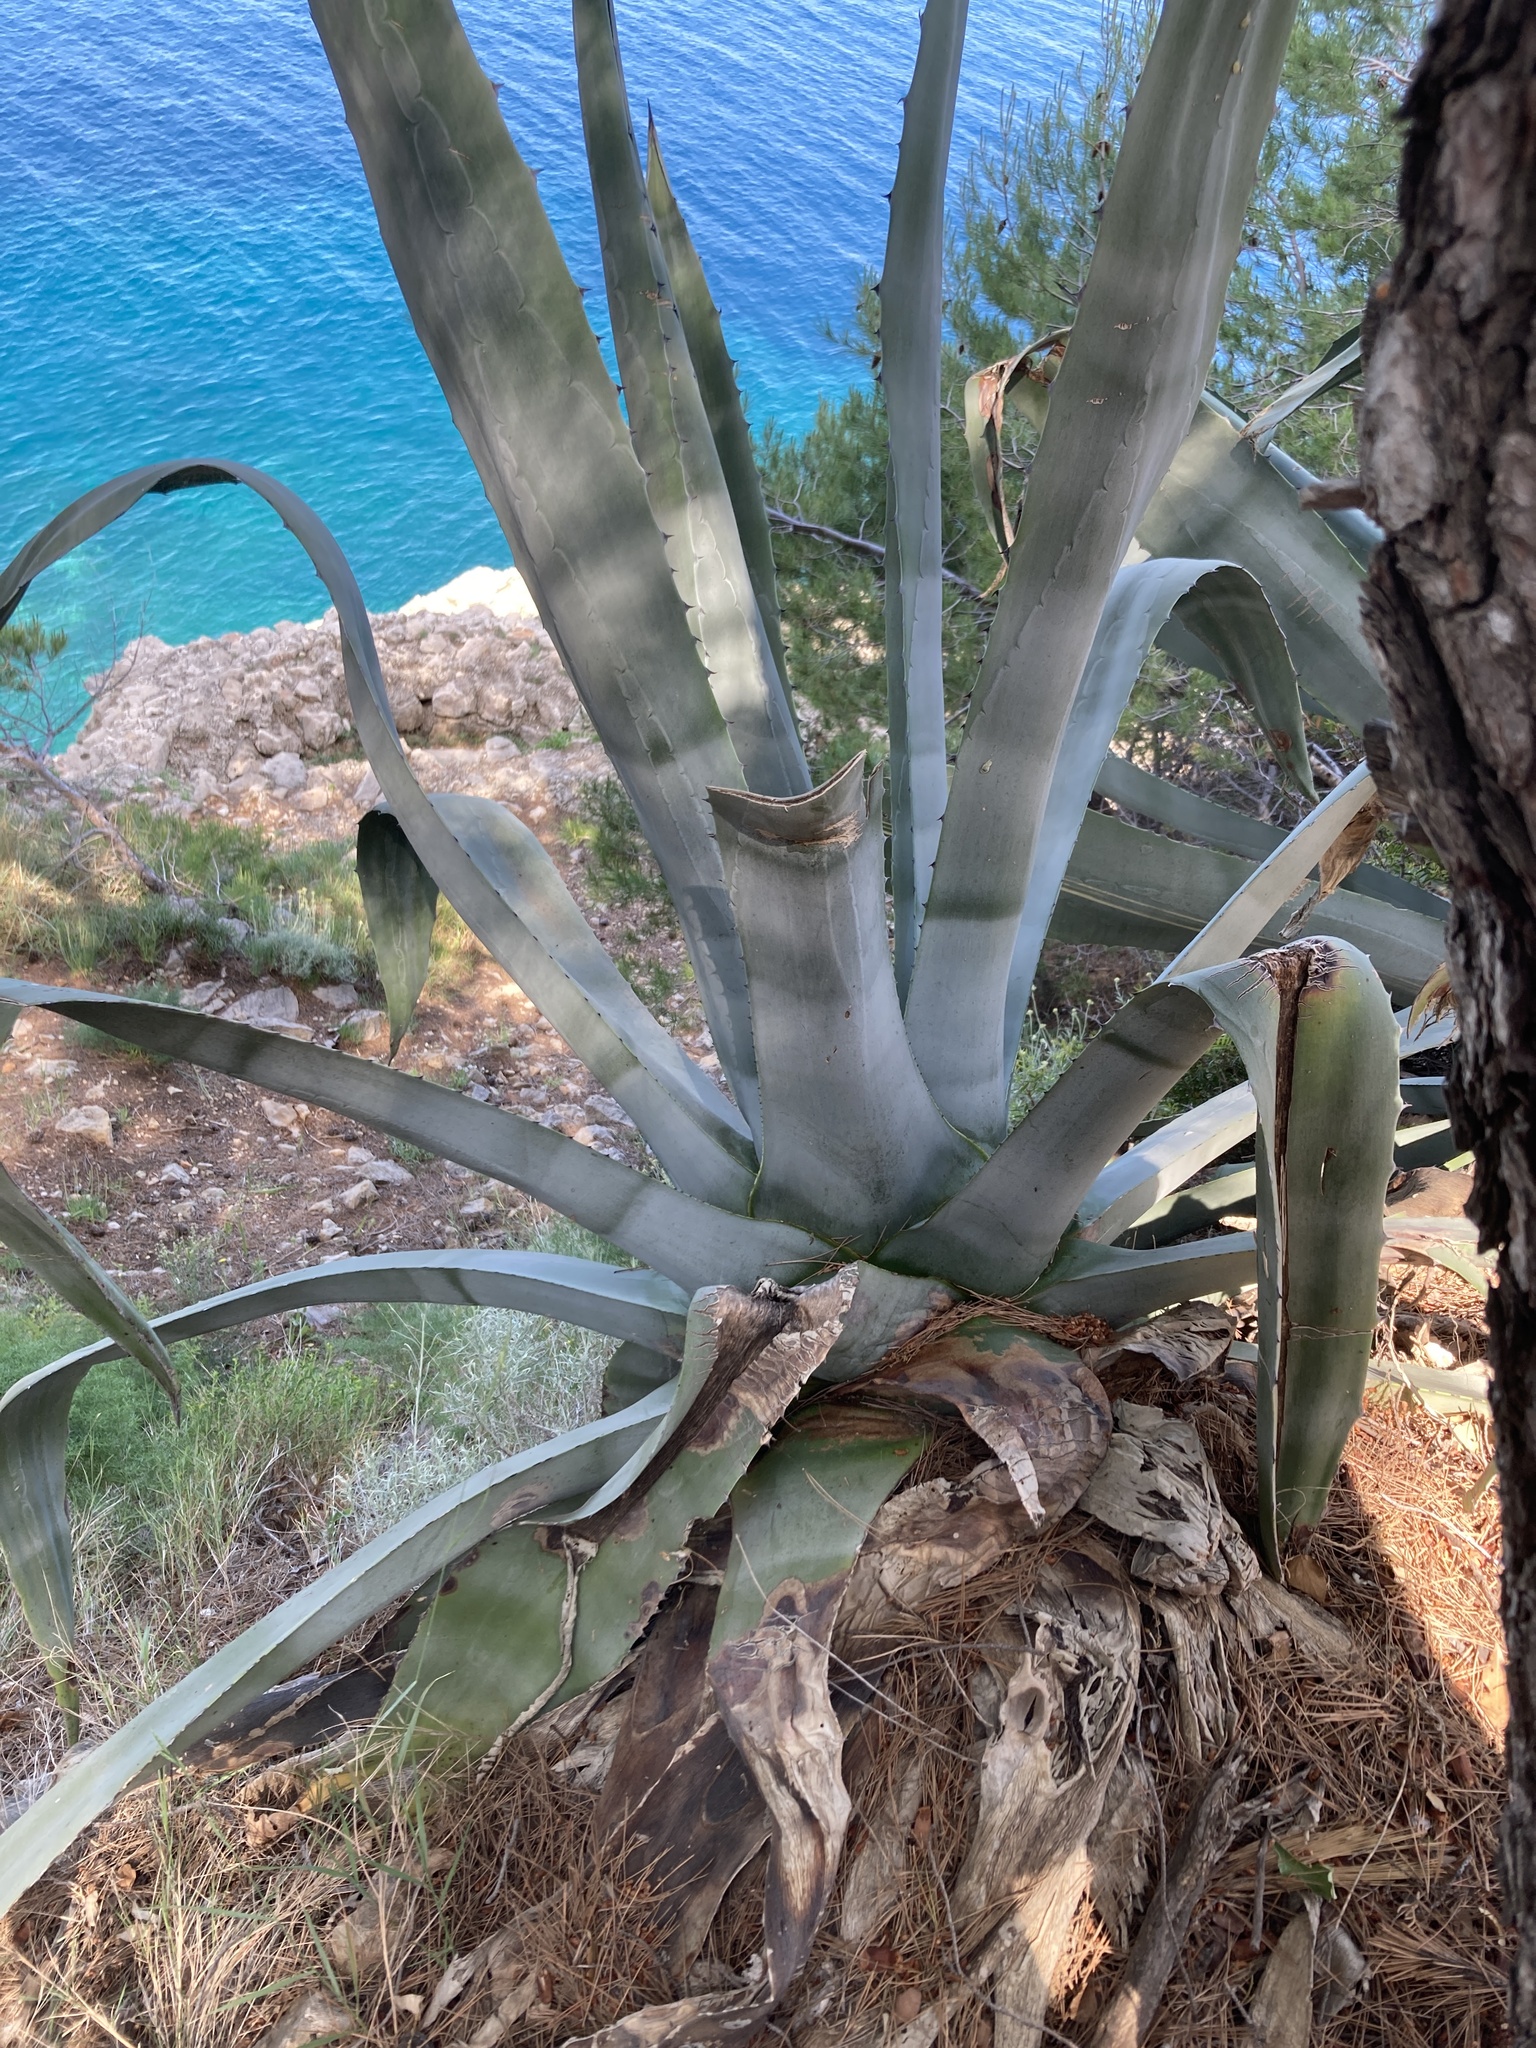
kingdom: Plantae
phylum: Tracheophyta
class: Liliopsida
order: Asparagales
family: Asparagaceae
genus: Agave
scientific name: Agave americana
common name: Centuryplant
